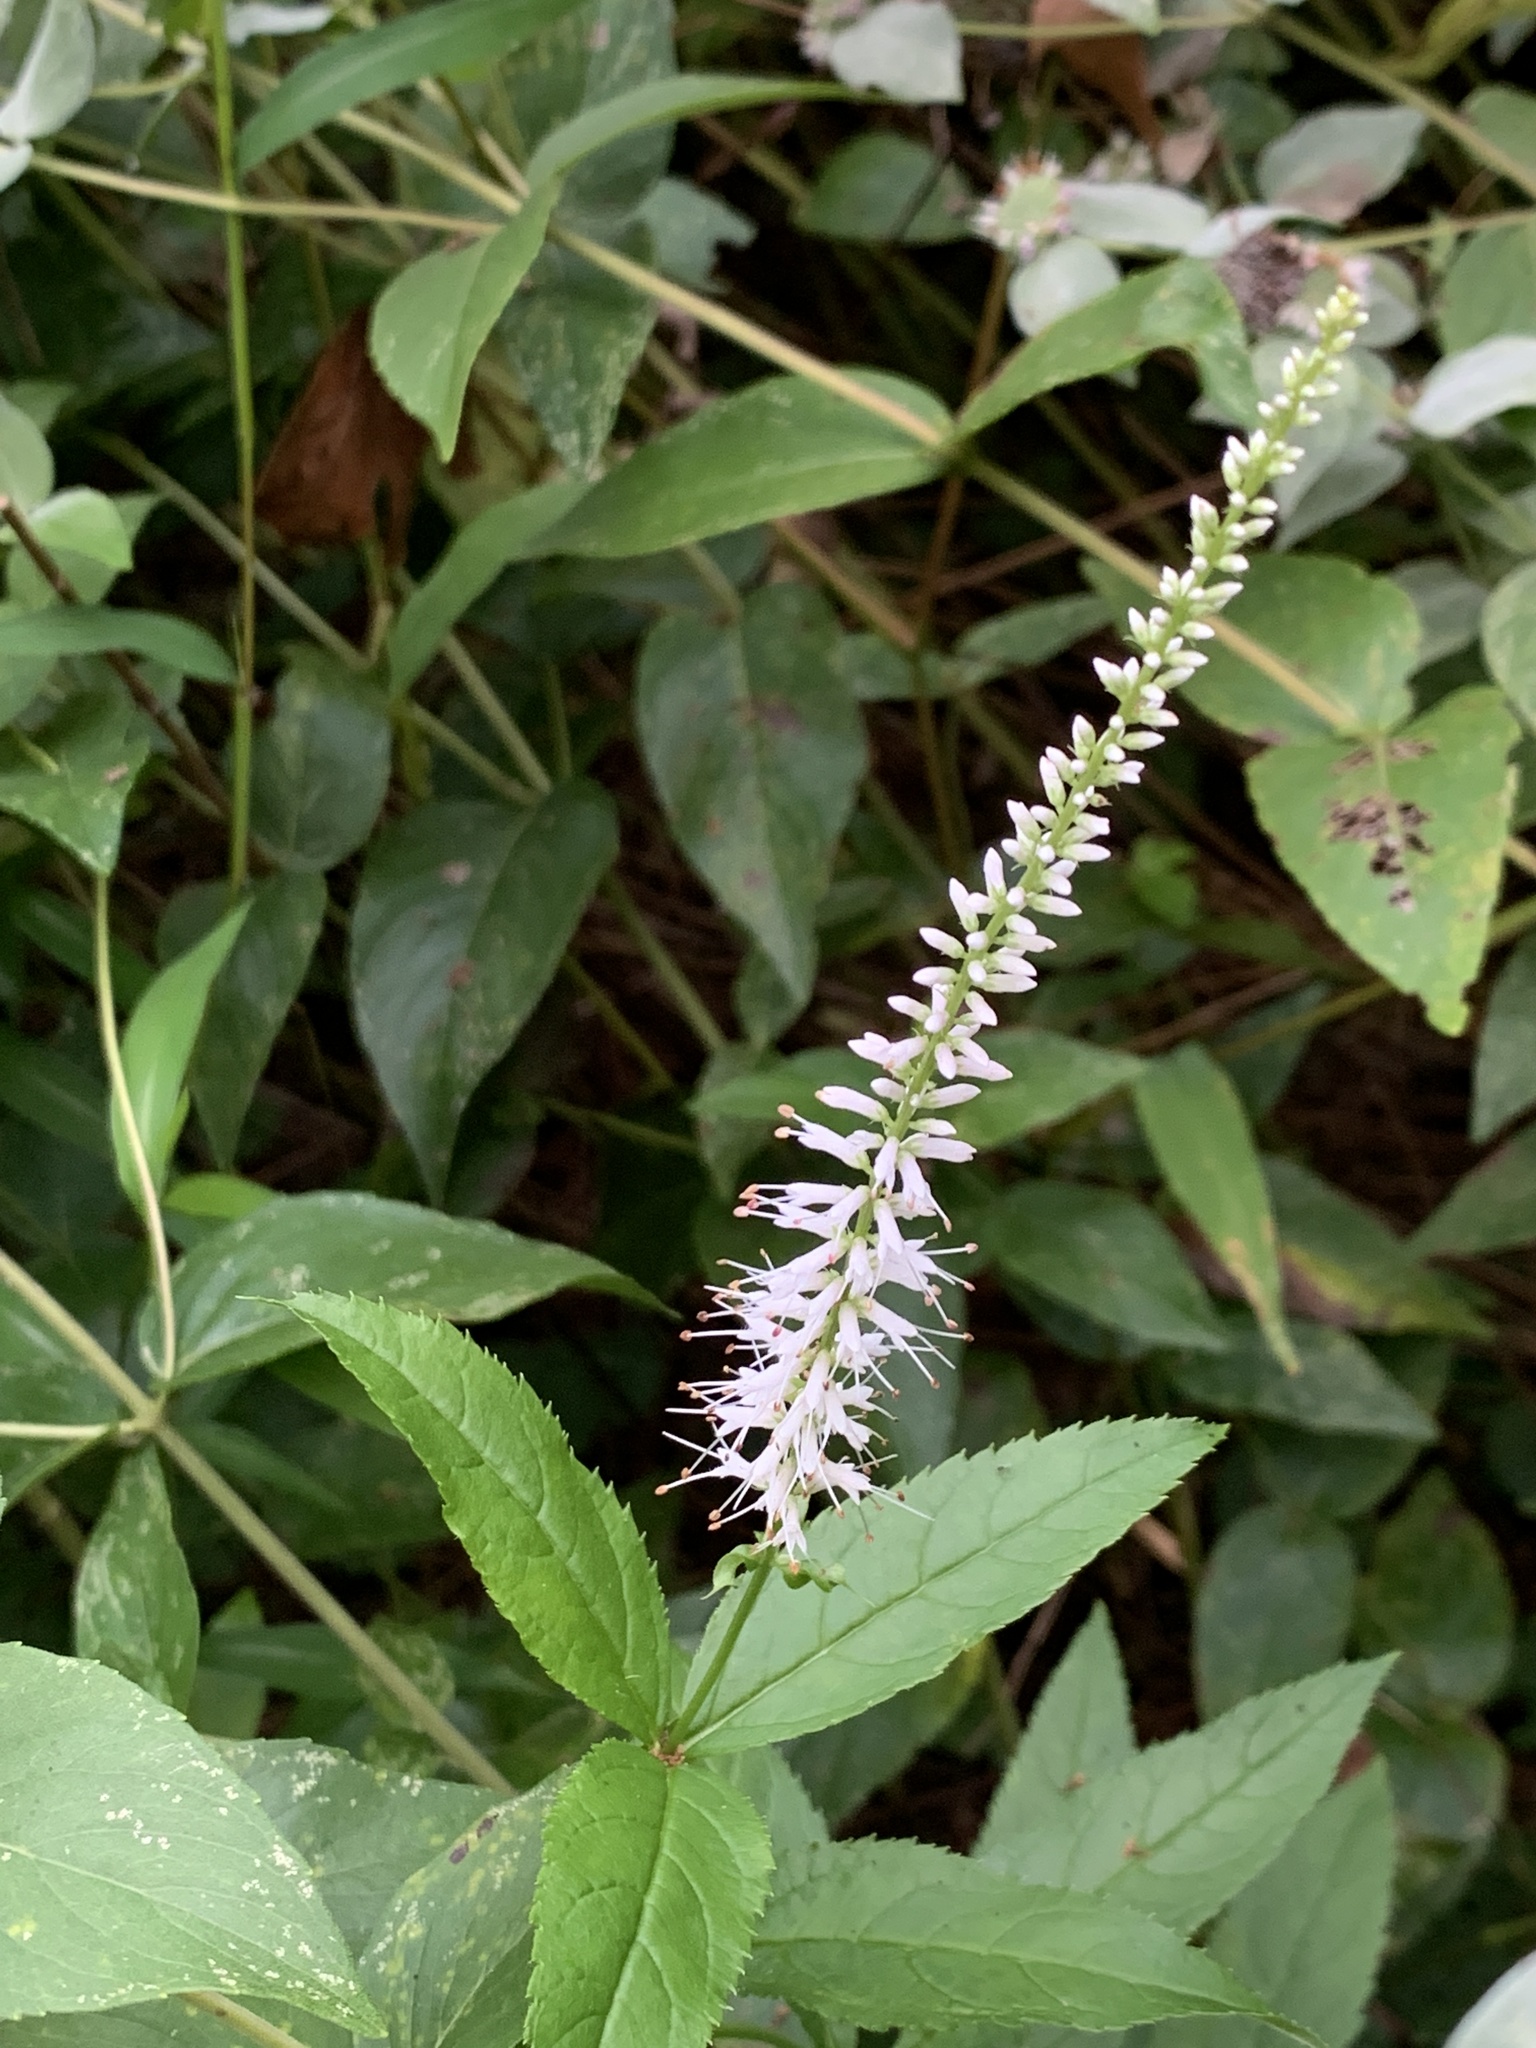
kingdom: Plantae
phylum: Tracheophyta
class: Magnoliopsida
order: Lamiales
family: Plantaginaceae
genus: Veronicastrum
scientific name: Veronicastrum virginicum
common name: Blackroot
